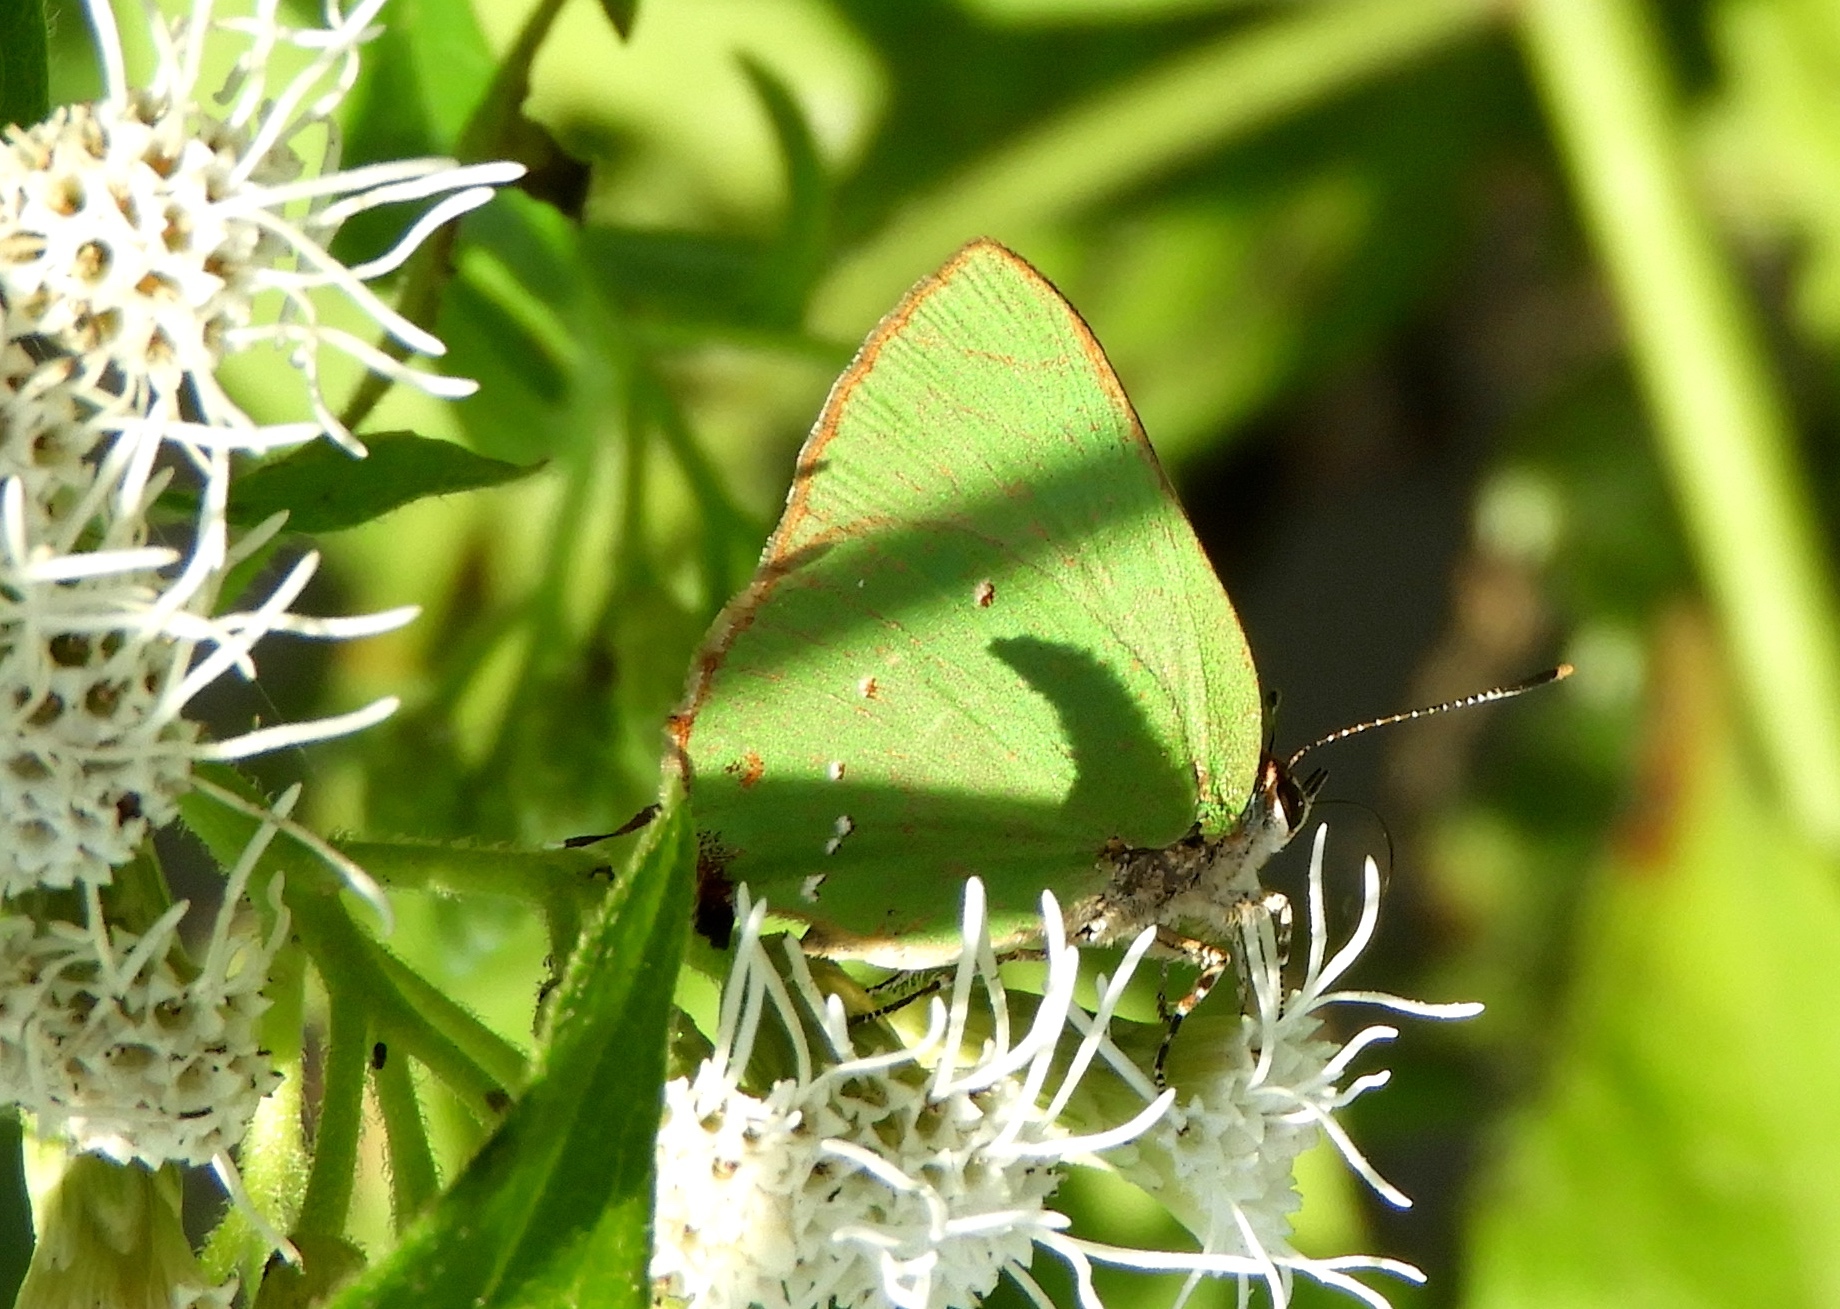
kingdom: Animalia
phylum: Arthropoda
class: Insecta
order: Lepidoptera
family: Lycaenidae
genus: Cyanophrys
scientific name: Cyanophrys
